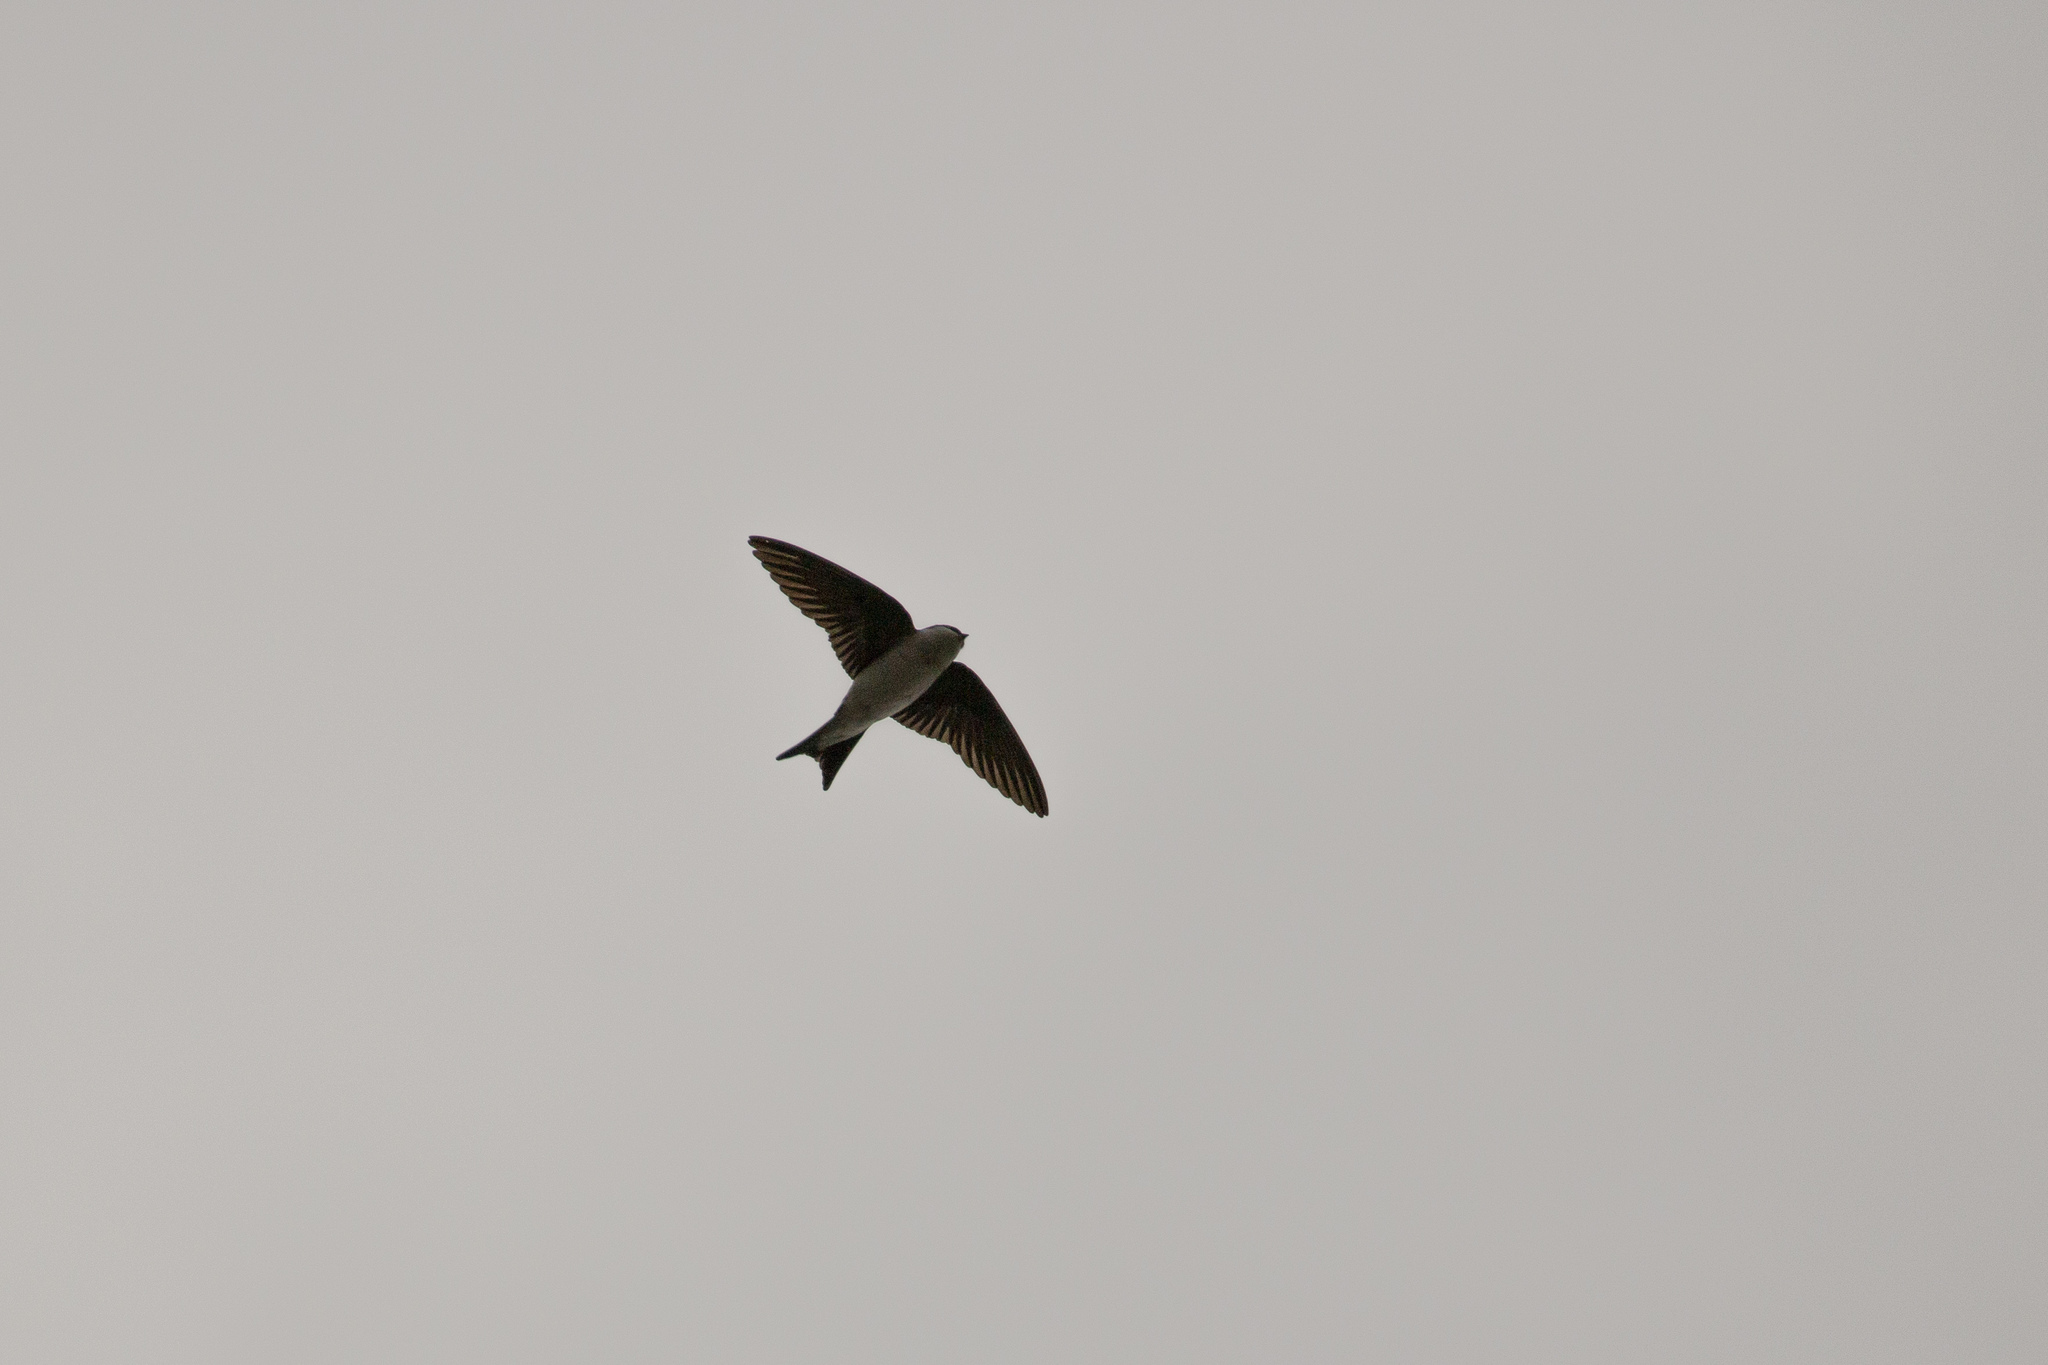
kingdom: Animalia
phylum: Chordata
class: Aves
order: Passeriformes
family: Hirundinidae
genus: Delichon
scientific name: Delichon urbicum
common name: Common house martin
